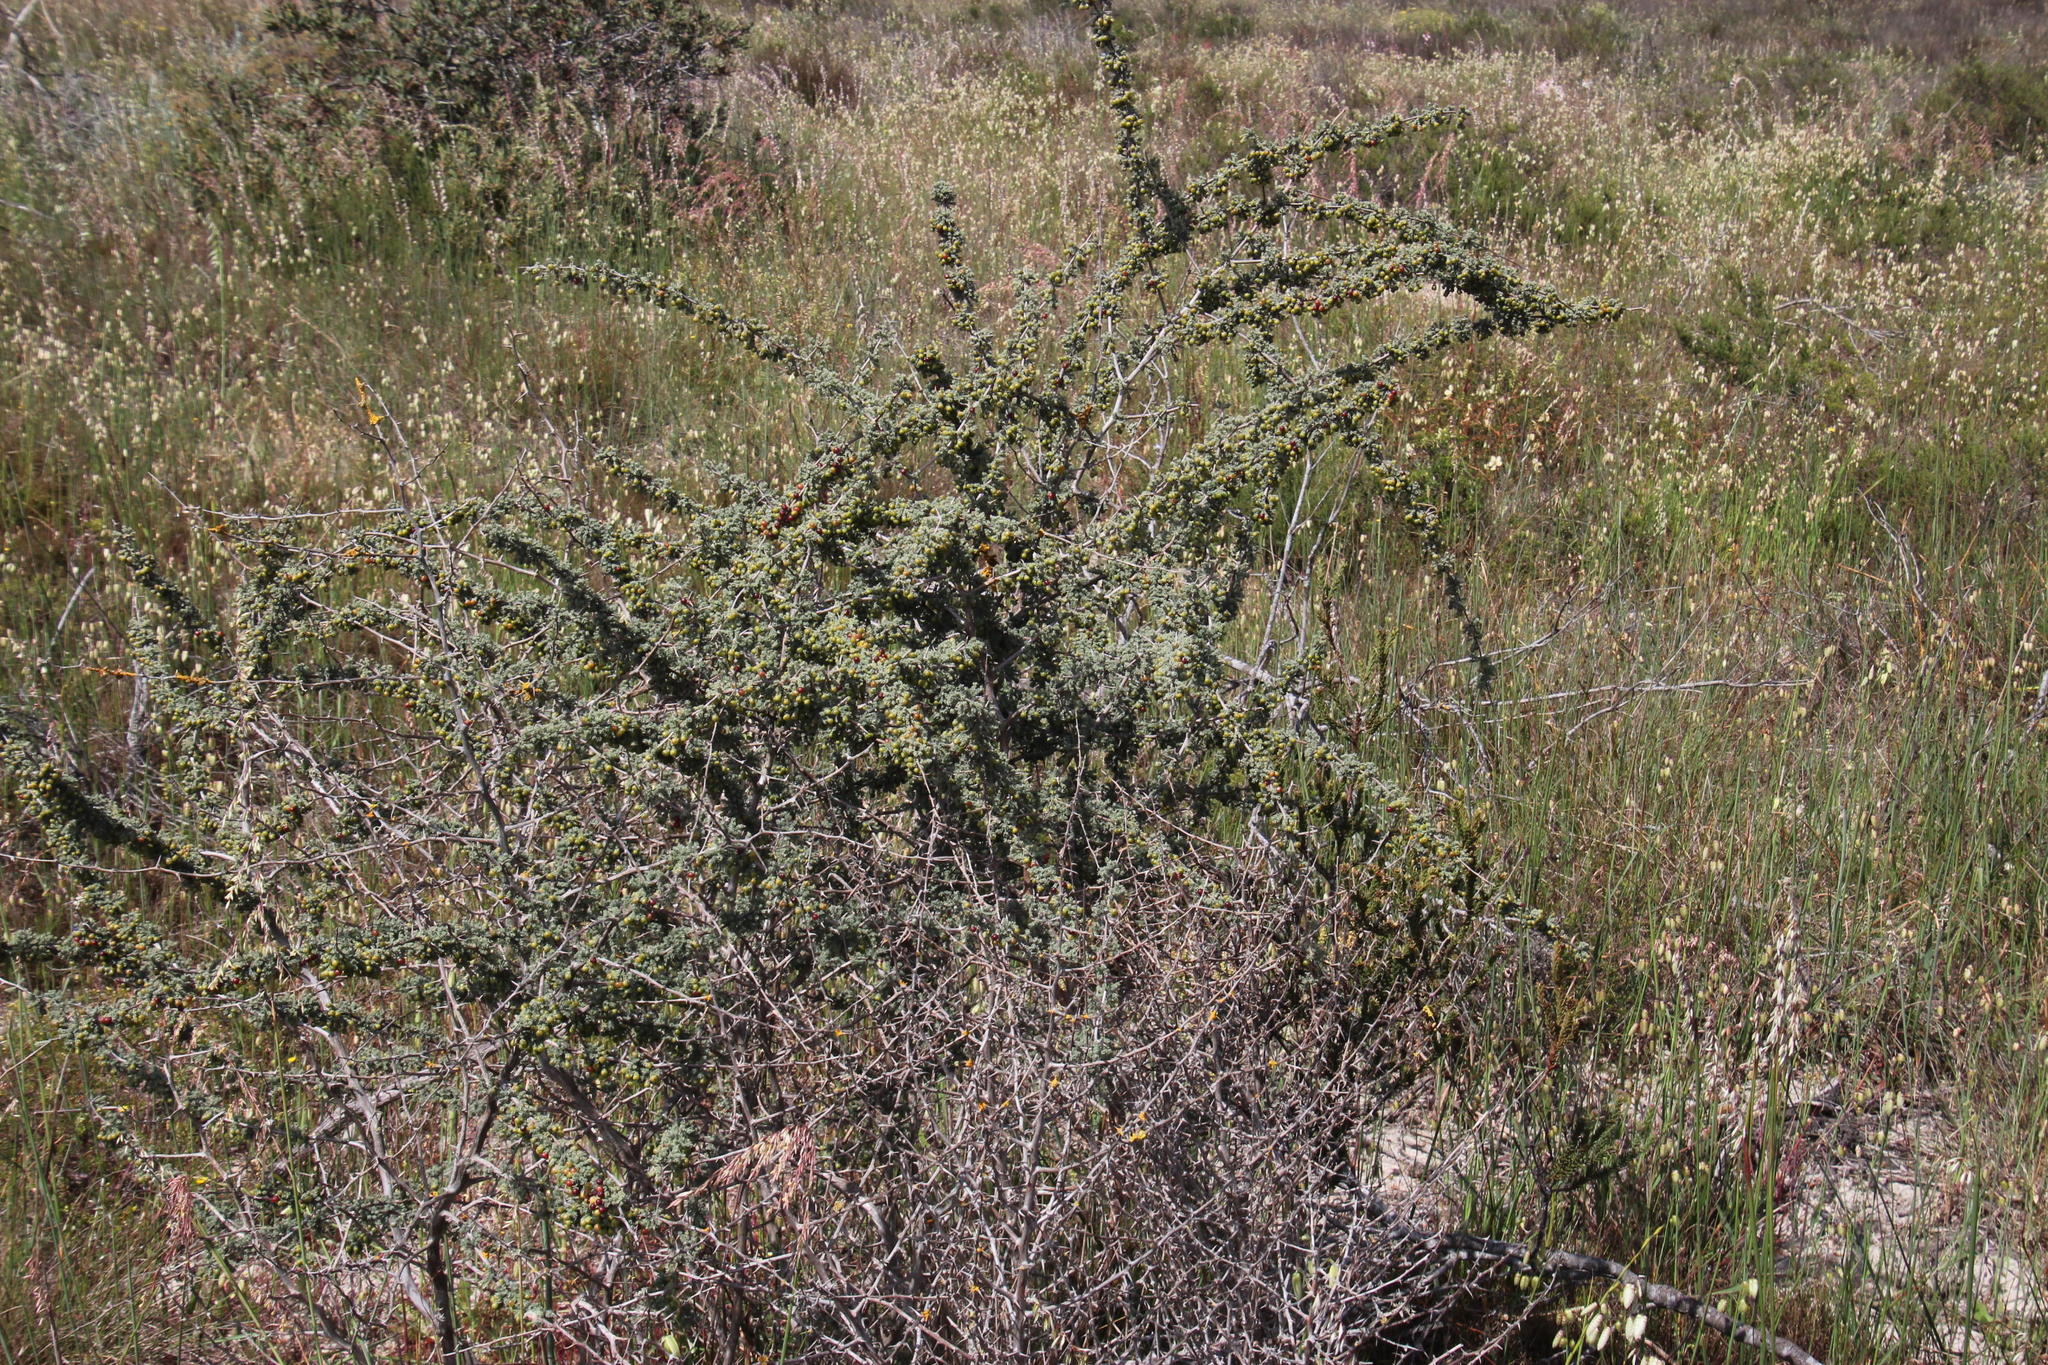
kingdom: Plantae
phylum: Tracheophyta
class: Liliopsida
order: Asparagales
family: Asparagaceae
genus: Asparagus
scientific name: Asparagus capensis
